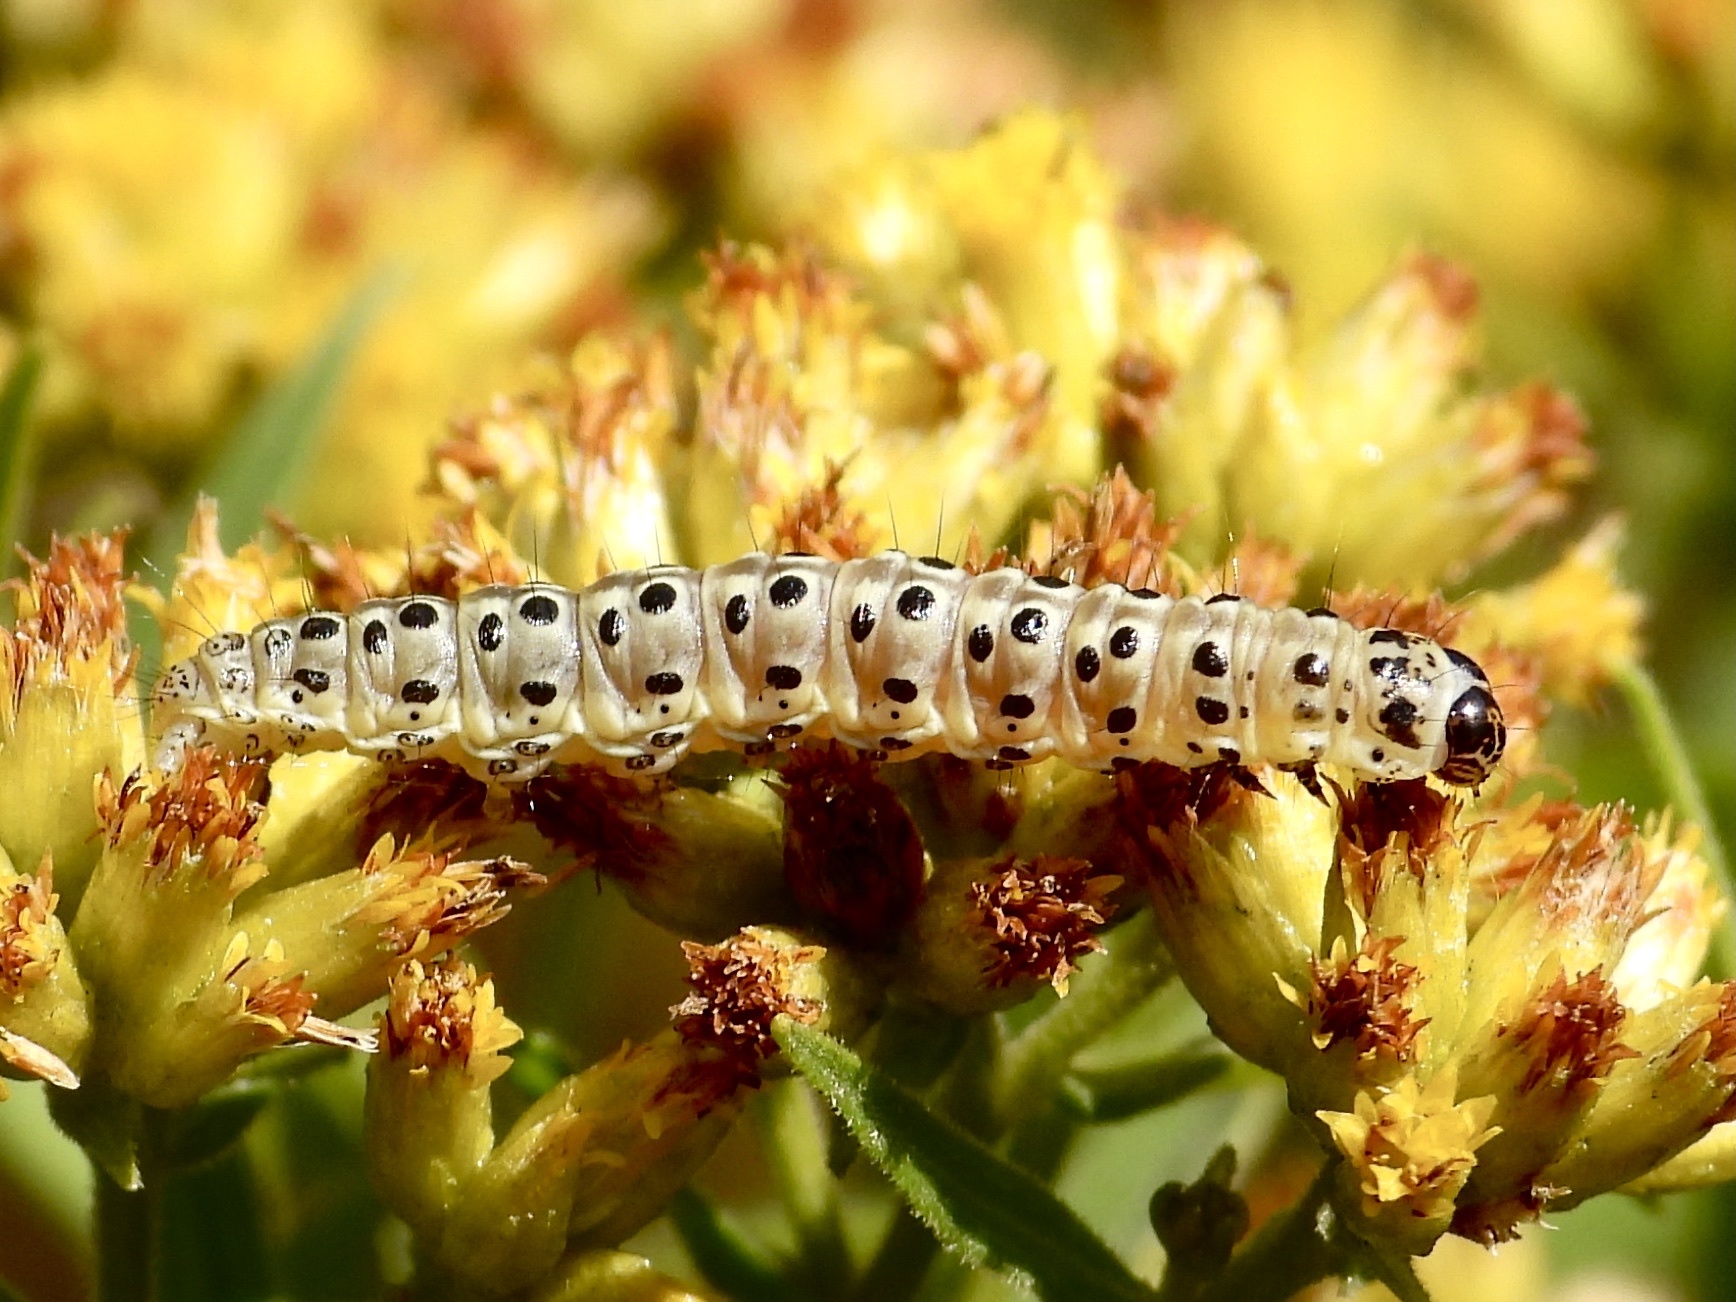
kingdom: Animalia
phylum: Arthropoda
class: Insecta
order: Lepidoptera
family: Crambidae
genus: Sitochroa
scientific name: Sitochroa palealis
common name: Greenish-yellow sitochroa moth
